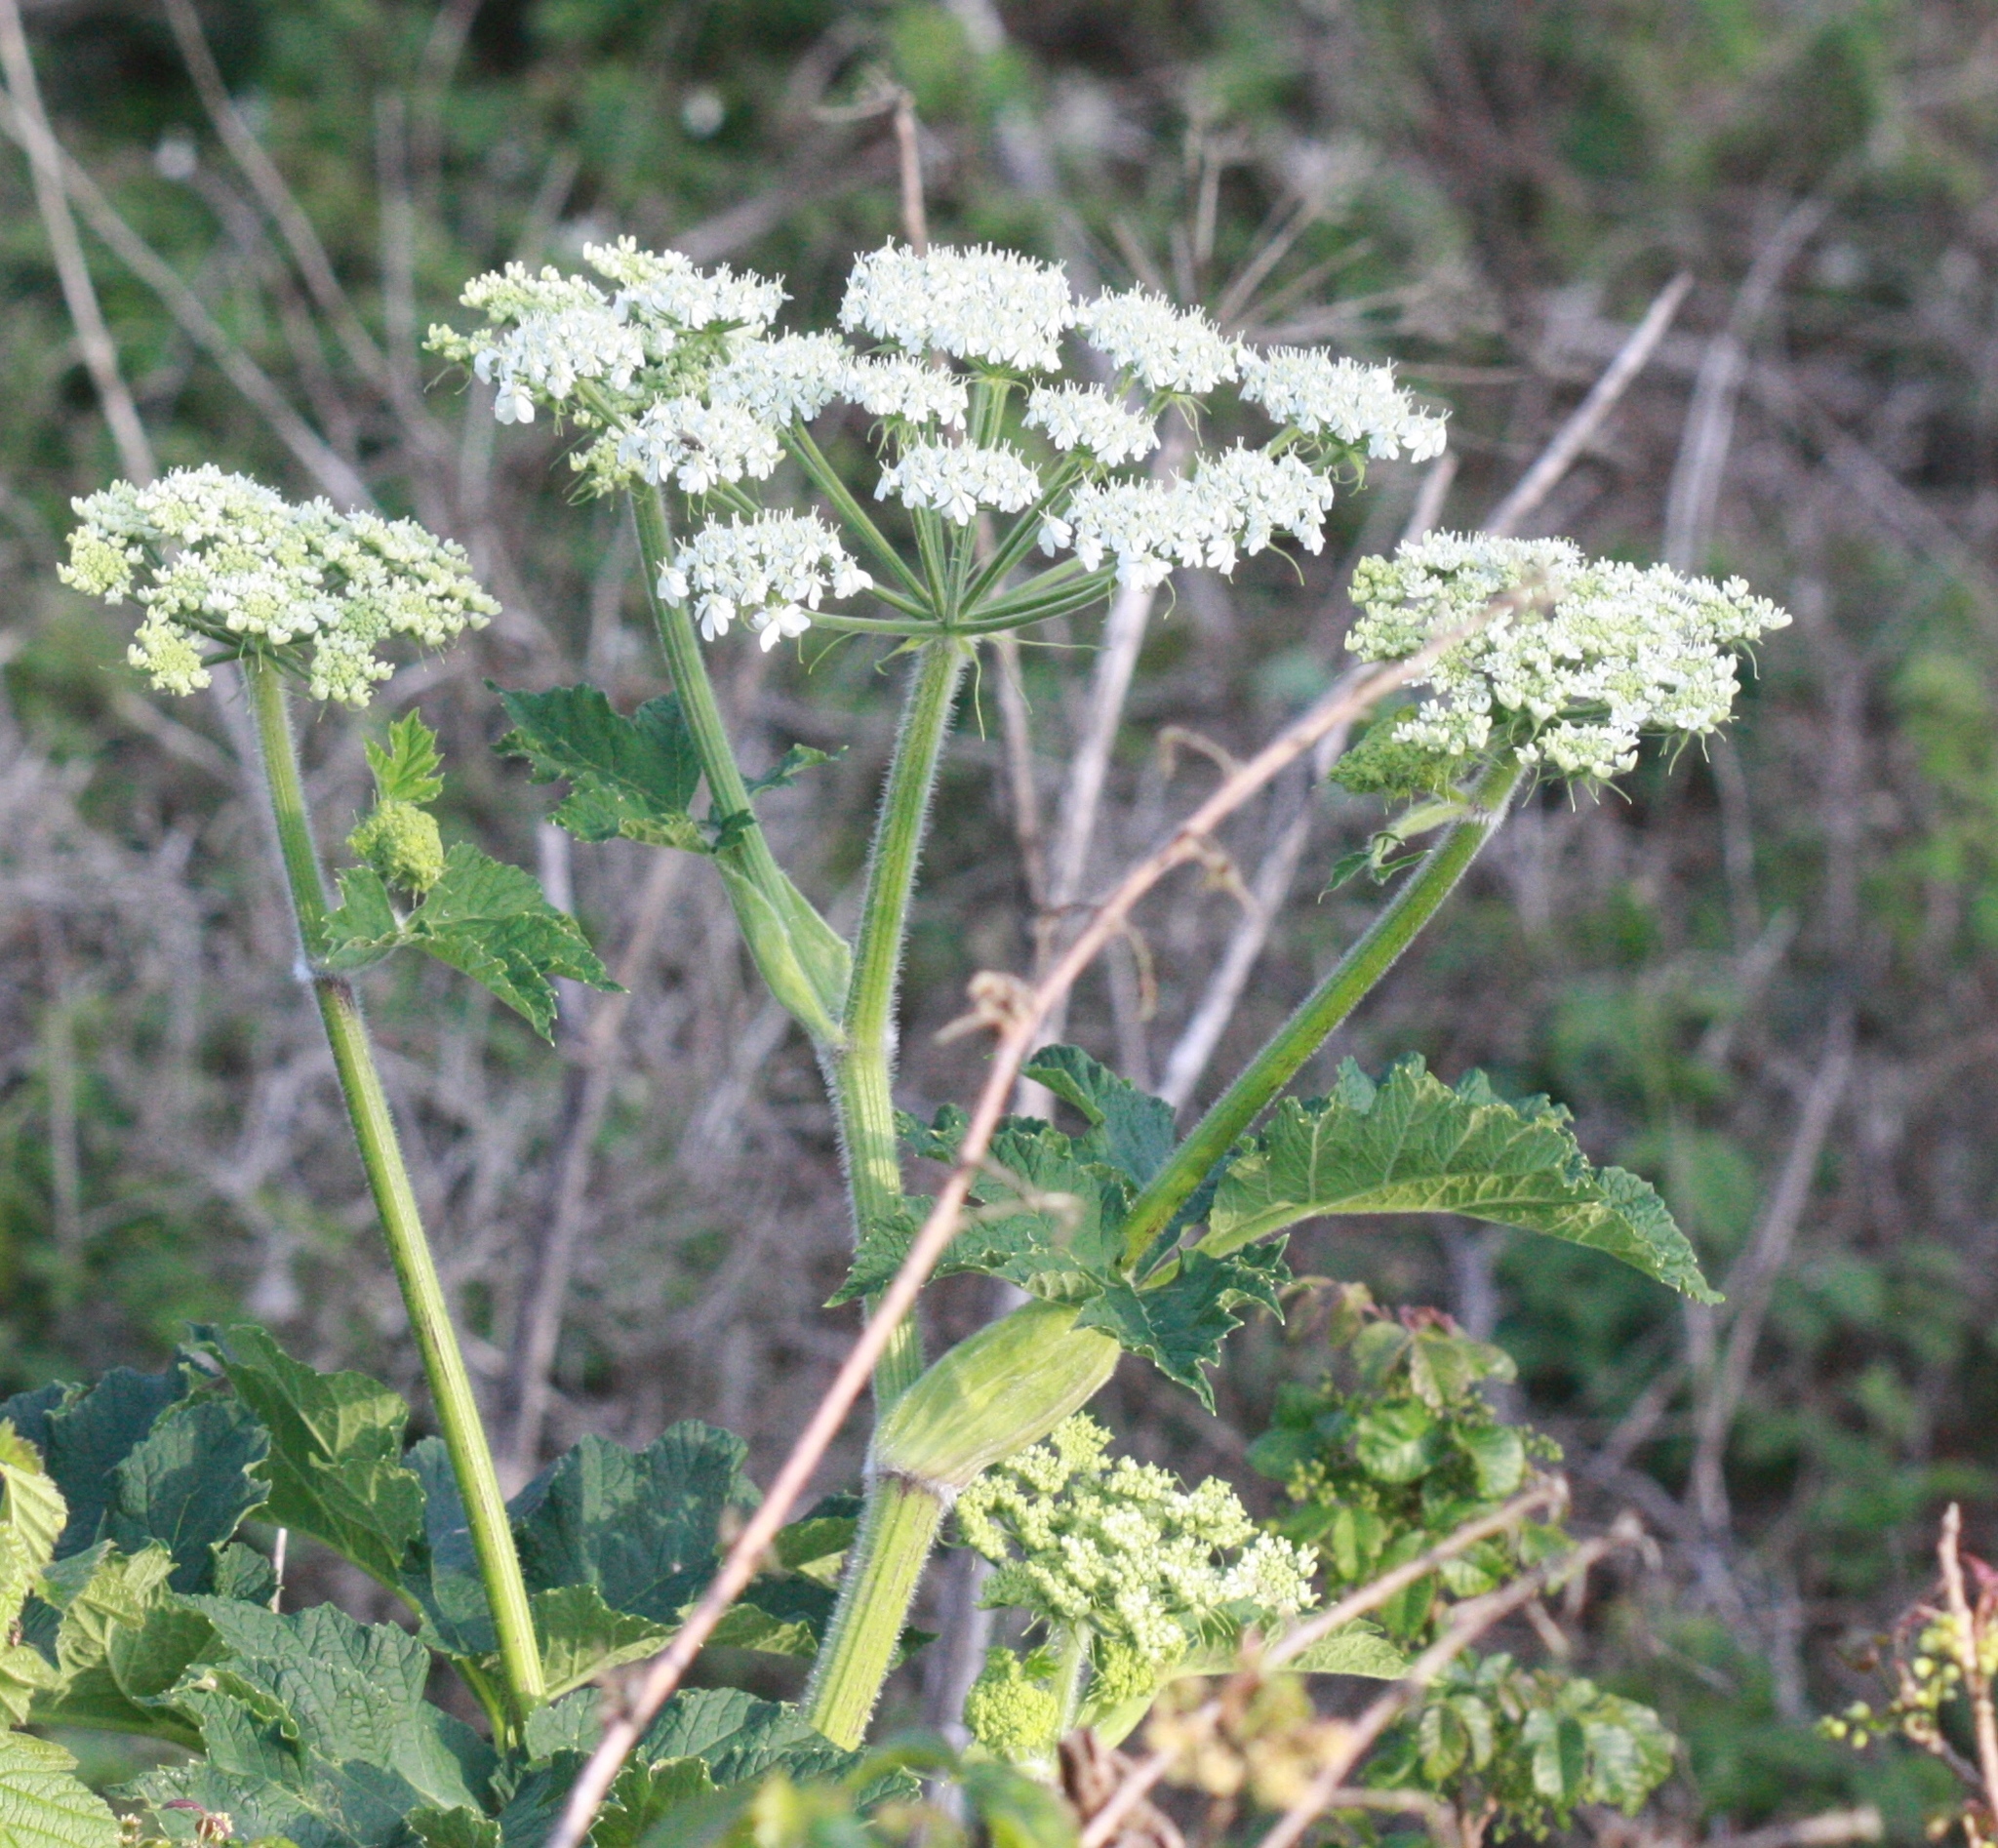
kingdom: Plantae
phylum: Tracheophyta
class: Magnoliopsida
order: Apiales
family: Apiaceae
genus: Heracleum
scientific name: Heracleum maximum
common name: American cow parsnip
